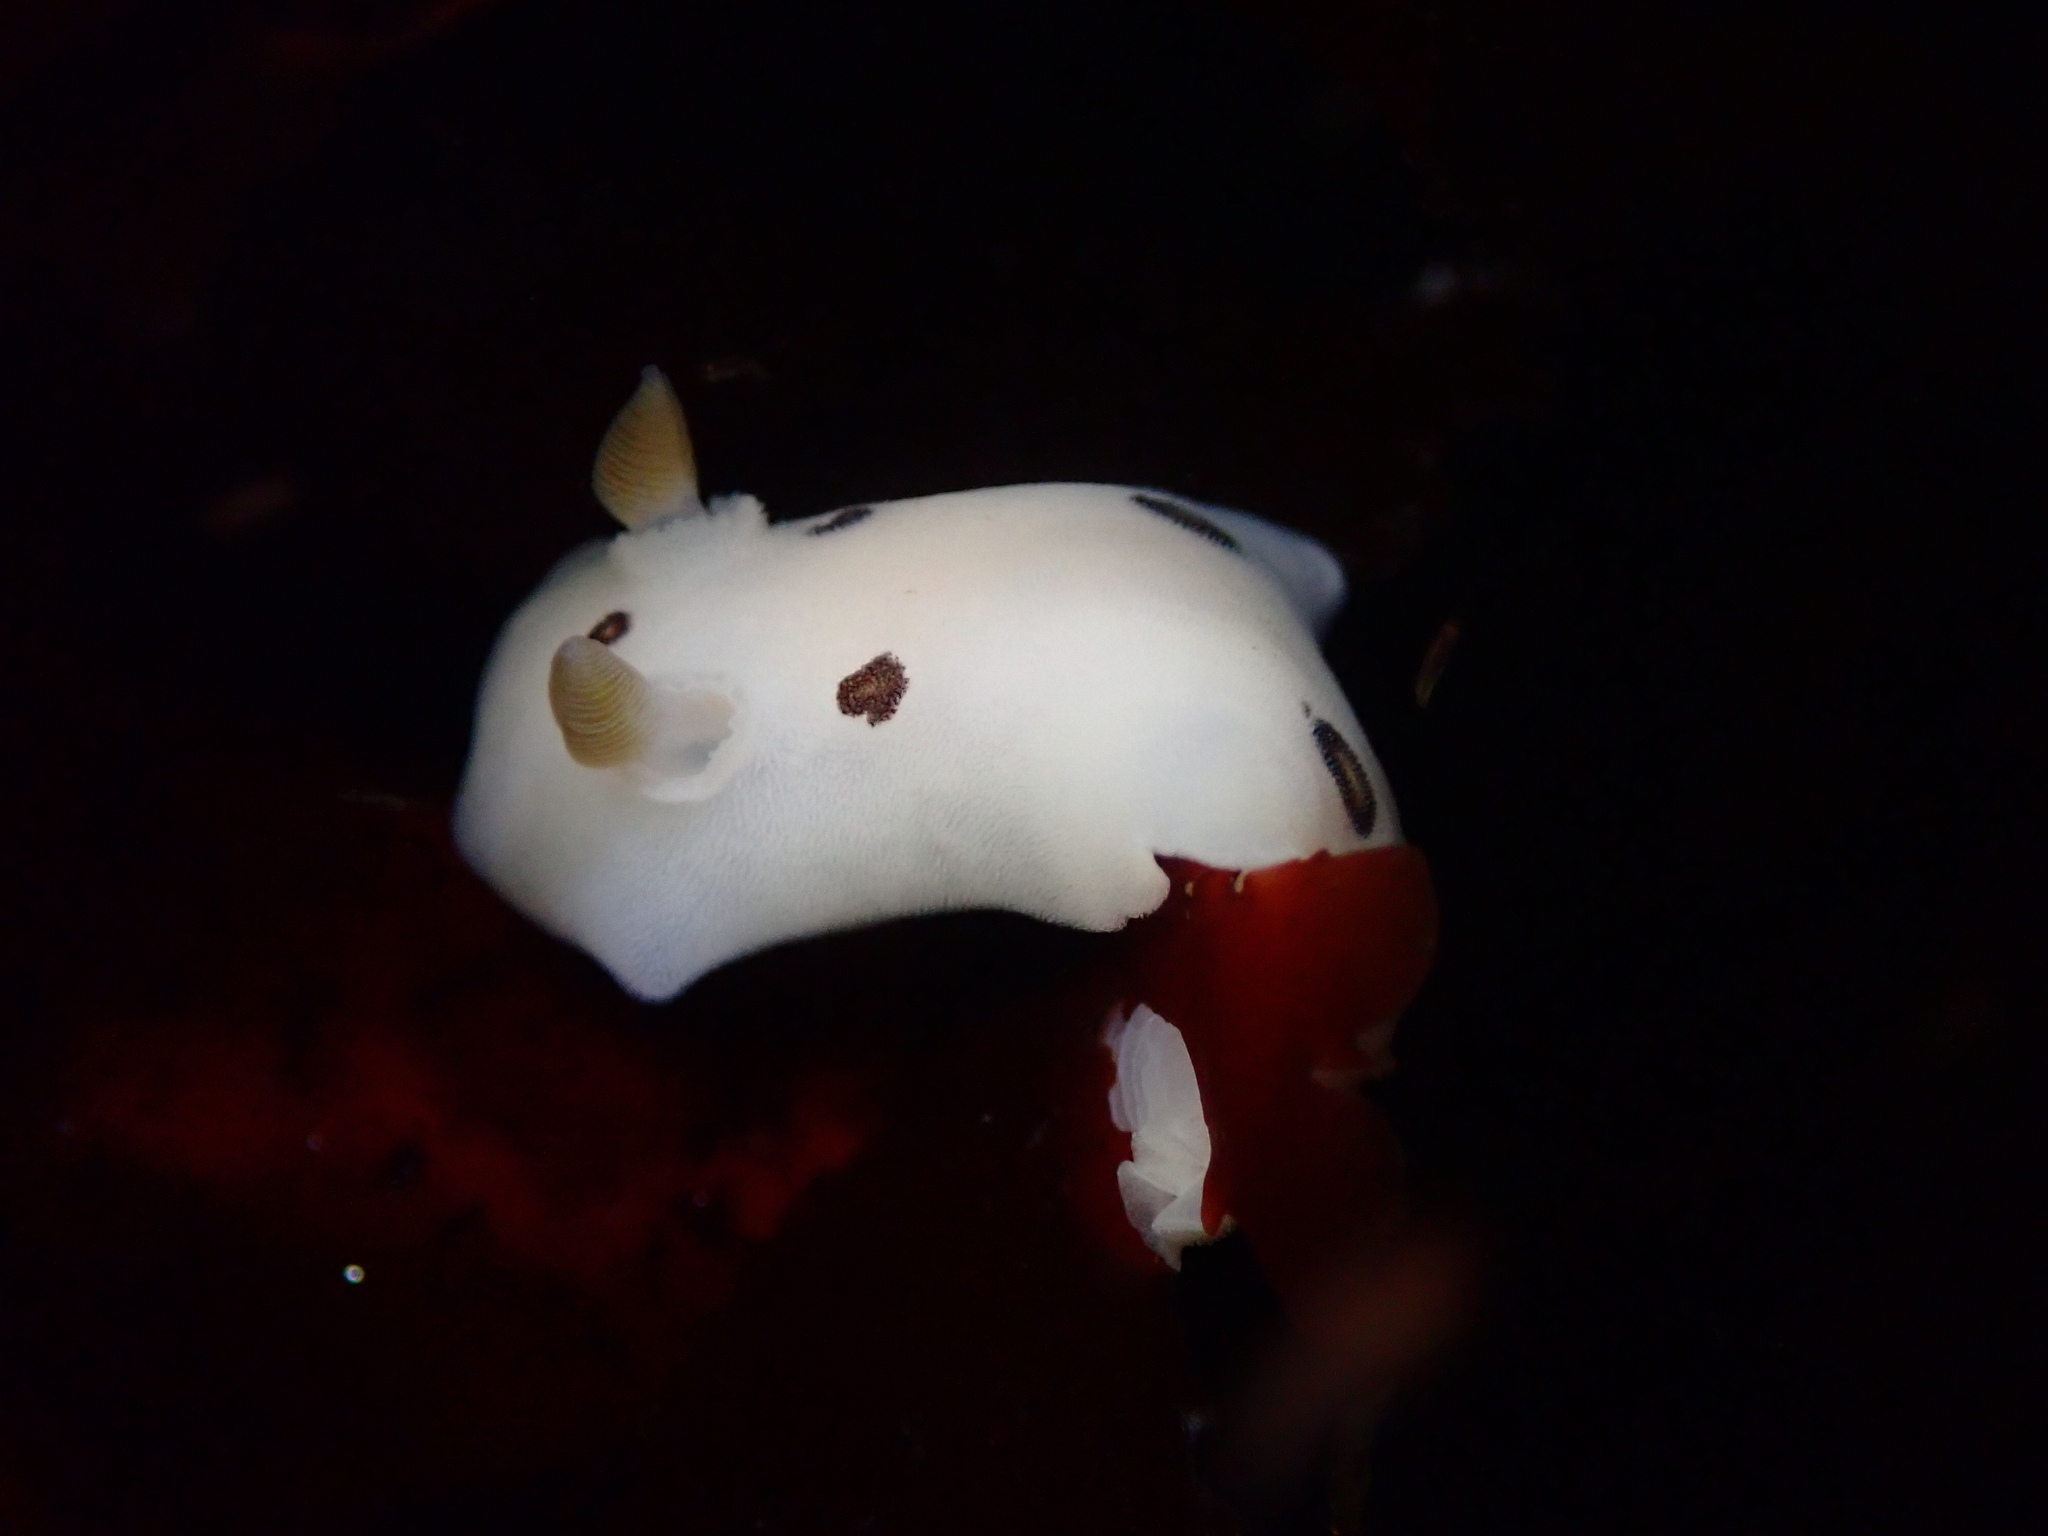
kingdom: Animalia
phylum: Mollusca
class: Gastropoda
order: Nudibranchia
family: Discodorididae
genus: Diaulula
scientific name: Diaulula sandiegensis
